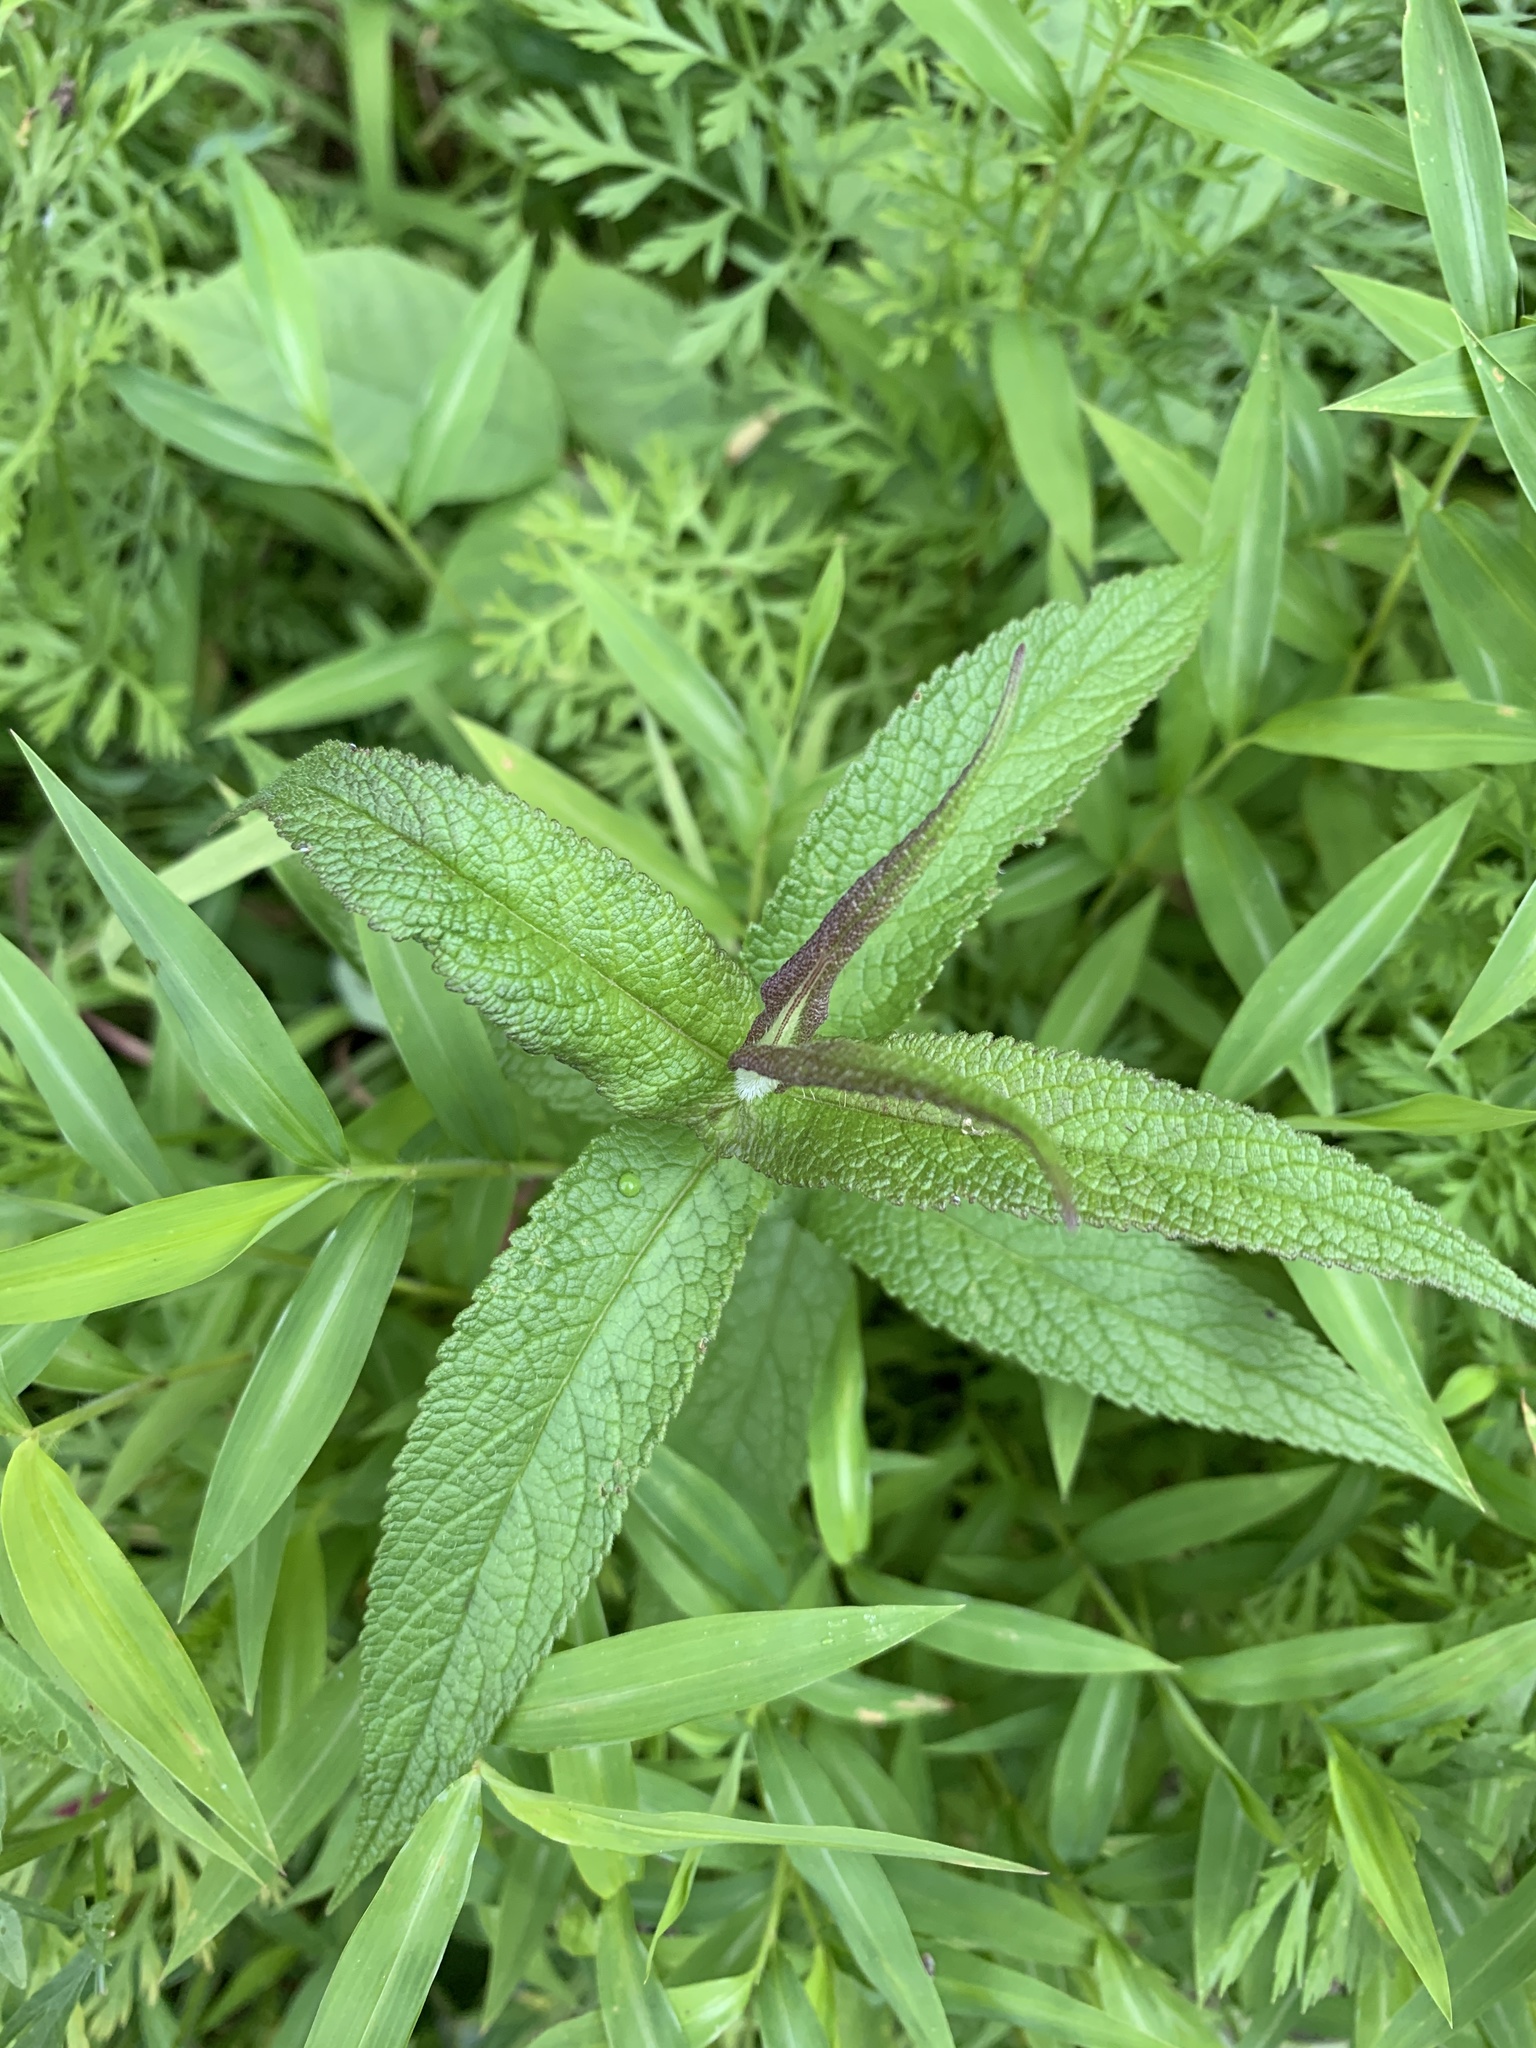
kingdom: Plantae
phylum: Tracheophyta
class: Magnoliopsida
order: Asterales
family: Asteraceae
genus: Eupatorium
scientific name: Eupatorium perfoliatum
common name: Boneset
